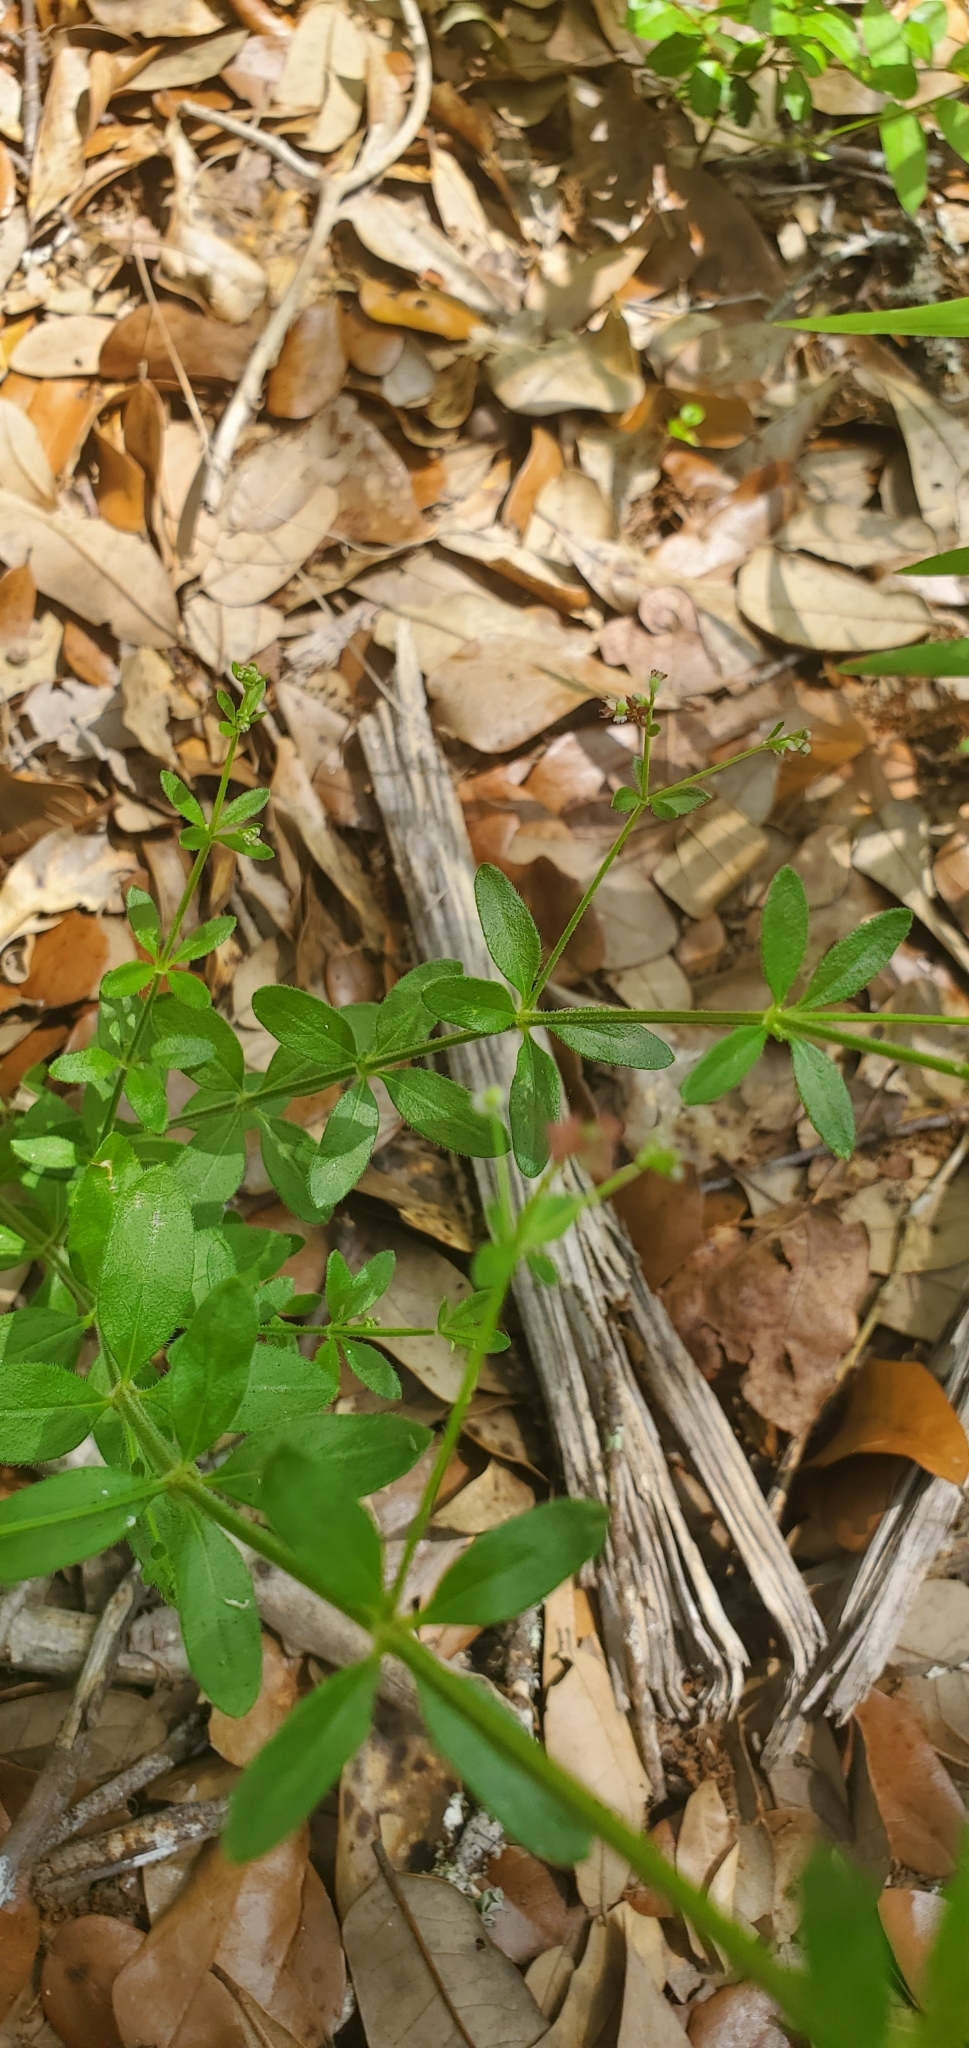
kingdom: Plantae
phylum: Tracheophyta
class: Magnoliopsida
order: Gentianales
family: Rubiaceae
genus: Galium
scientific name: Galium pilosum
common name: Hairy bedstraw
